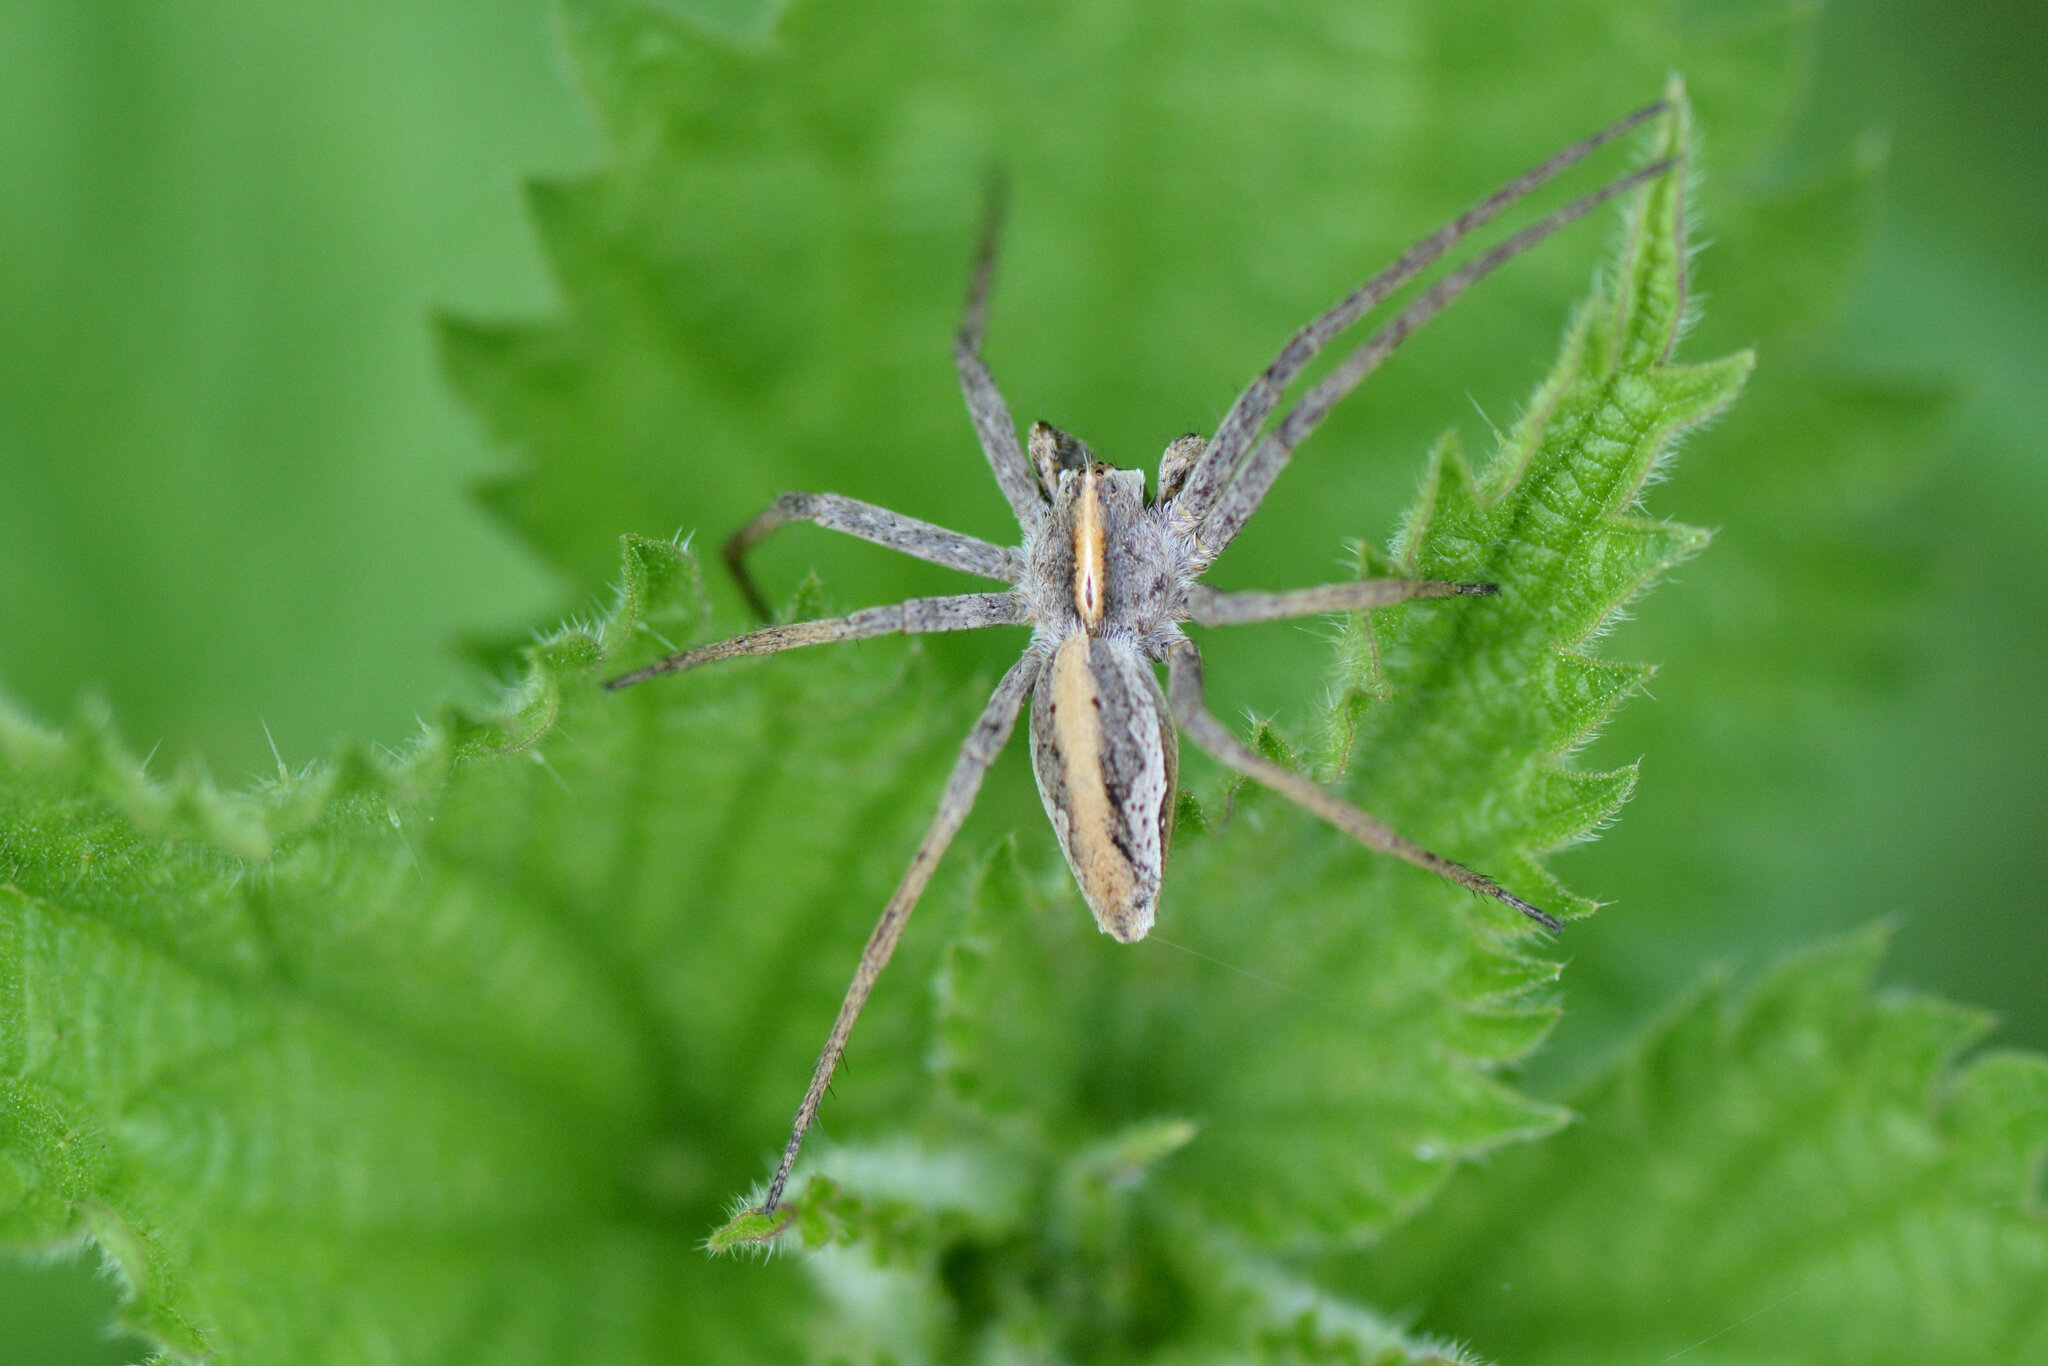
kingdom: Animalia
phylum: Arthropoda
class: Arachnida
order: Araneae
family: Pisauridae
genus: Pisaura
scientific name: Pisaura mirabilis
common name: Tent spider
